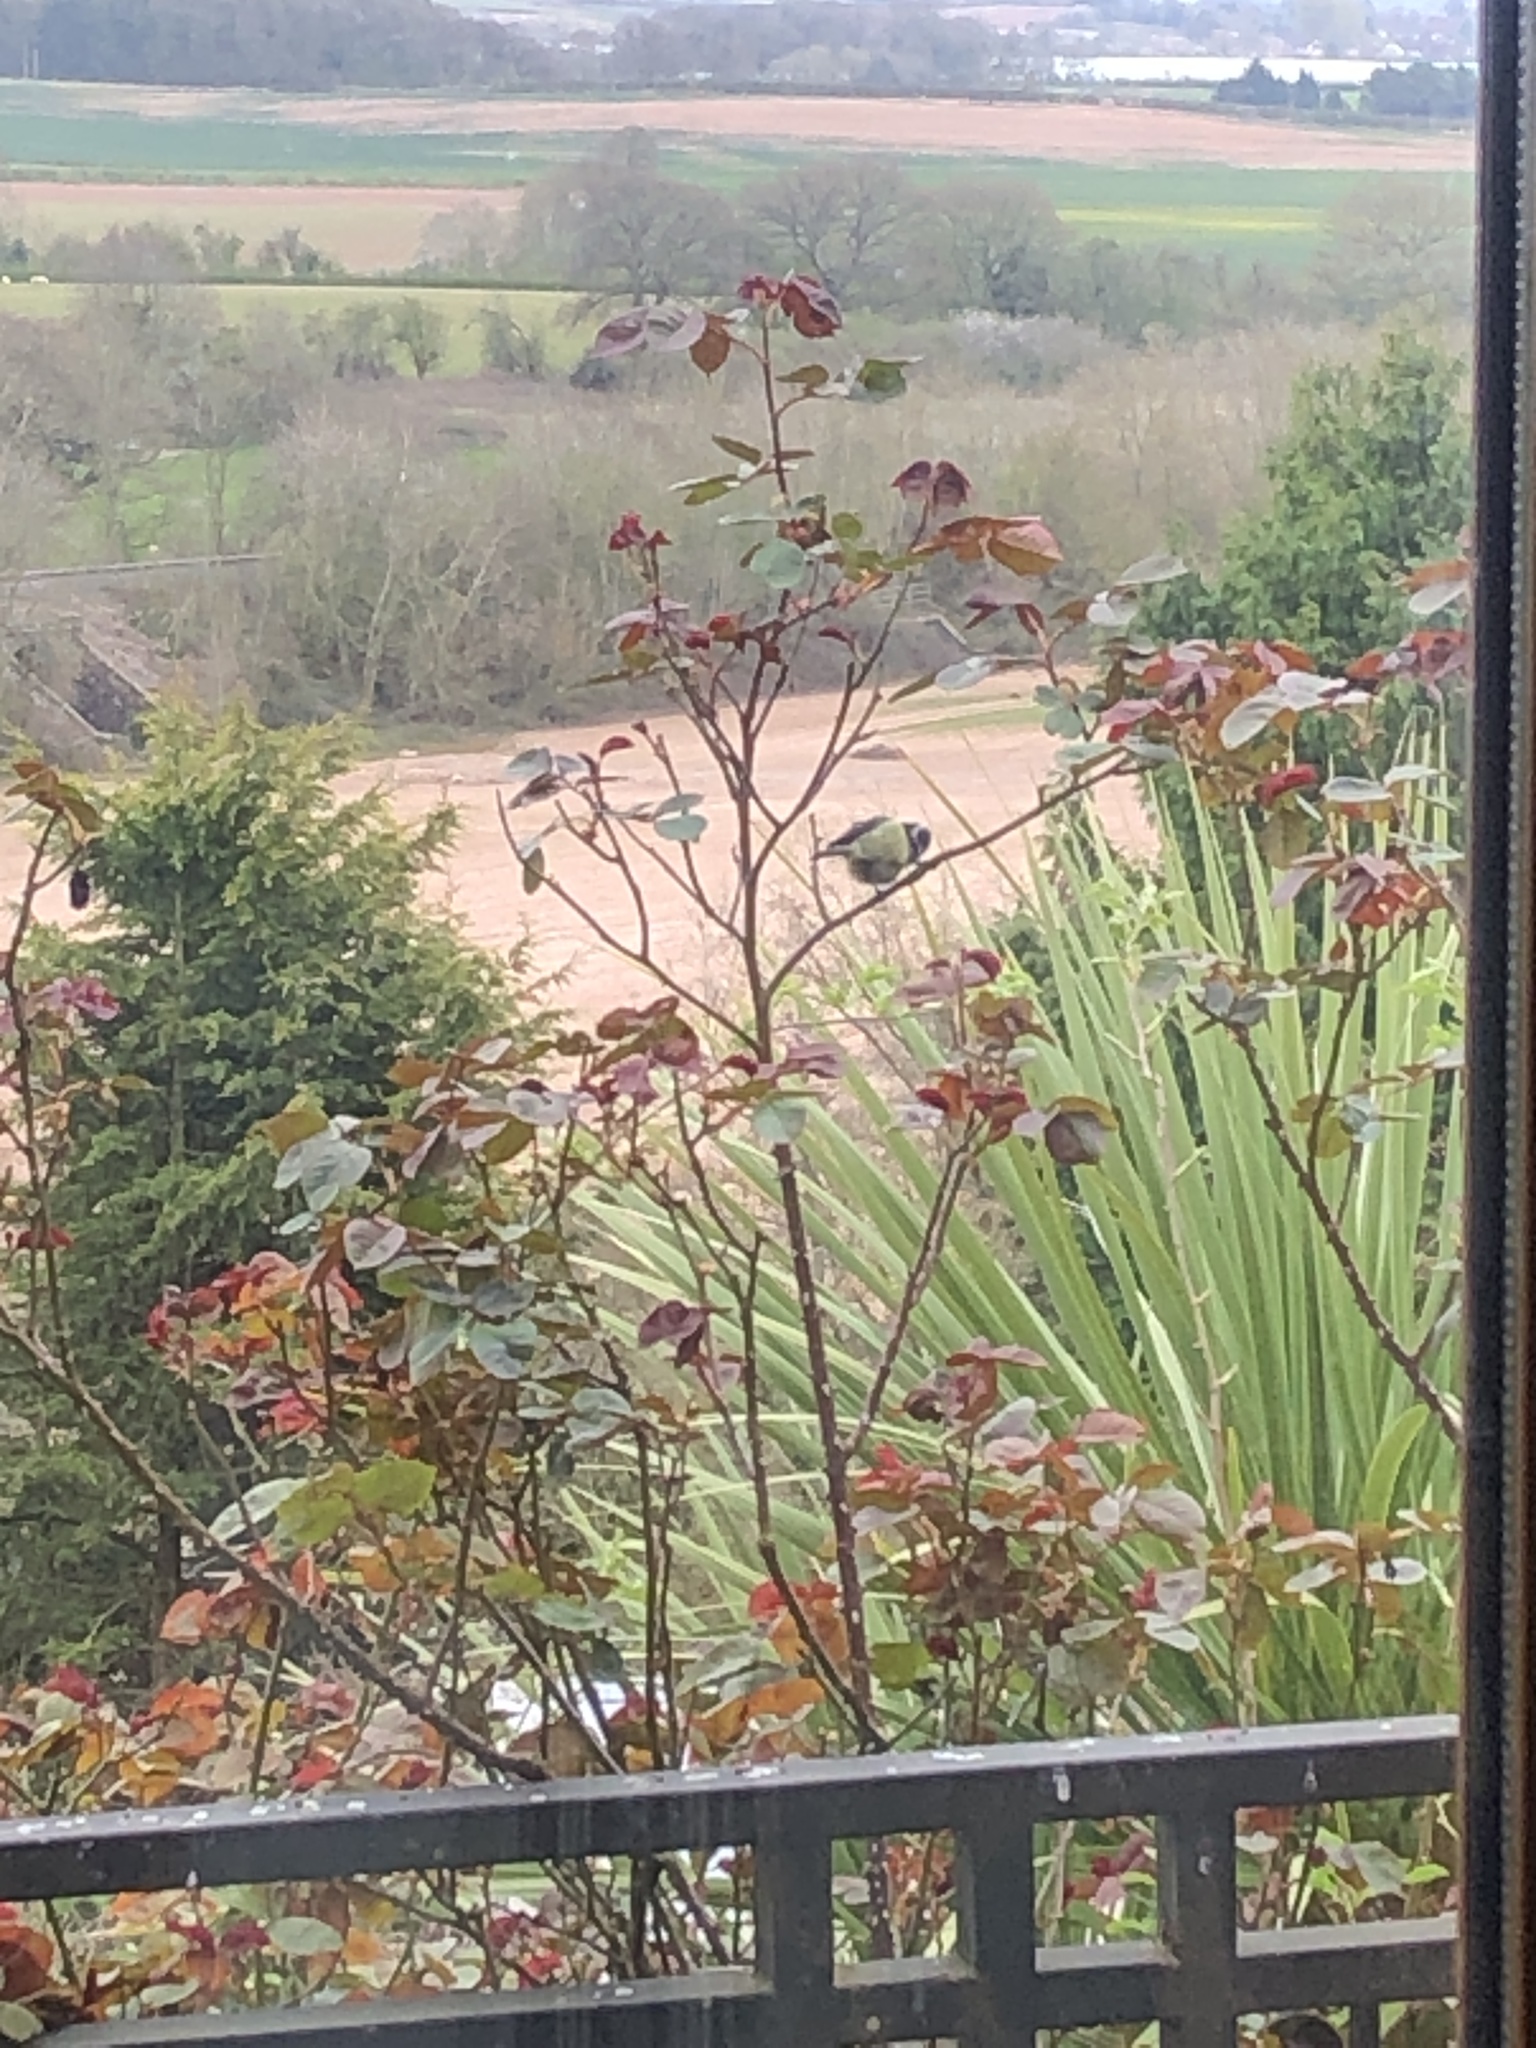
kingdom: Animalia
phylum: Chordata
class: Aves
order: Passeriformes
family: Paridae
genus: Cyanistes
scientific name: Cyanistes caeruleus
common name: Eurasian blue tit
